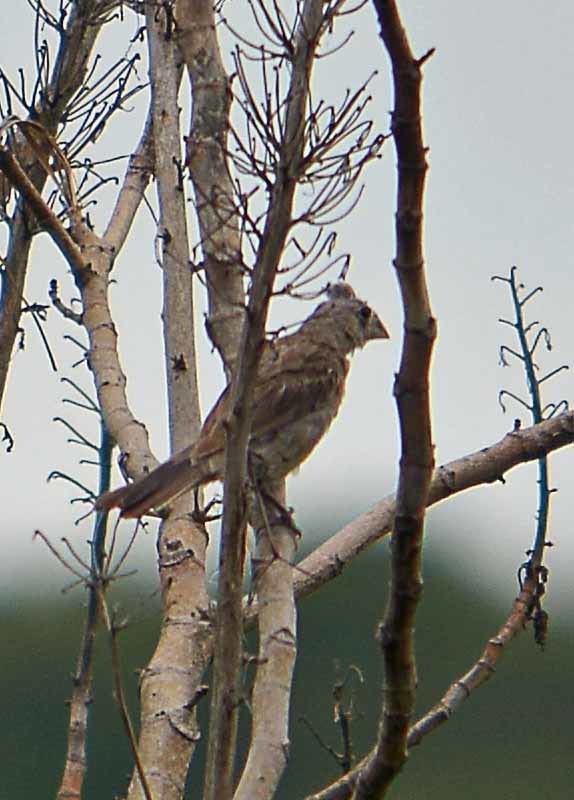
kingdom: Animalia
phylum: Chordata
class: Aves
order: Passeriformes
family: Cardinalidae
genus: Passerina
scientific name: Passerina caerulea
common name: Blue grosbeak
